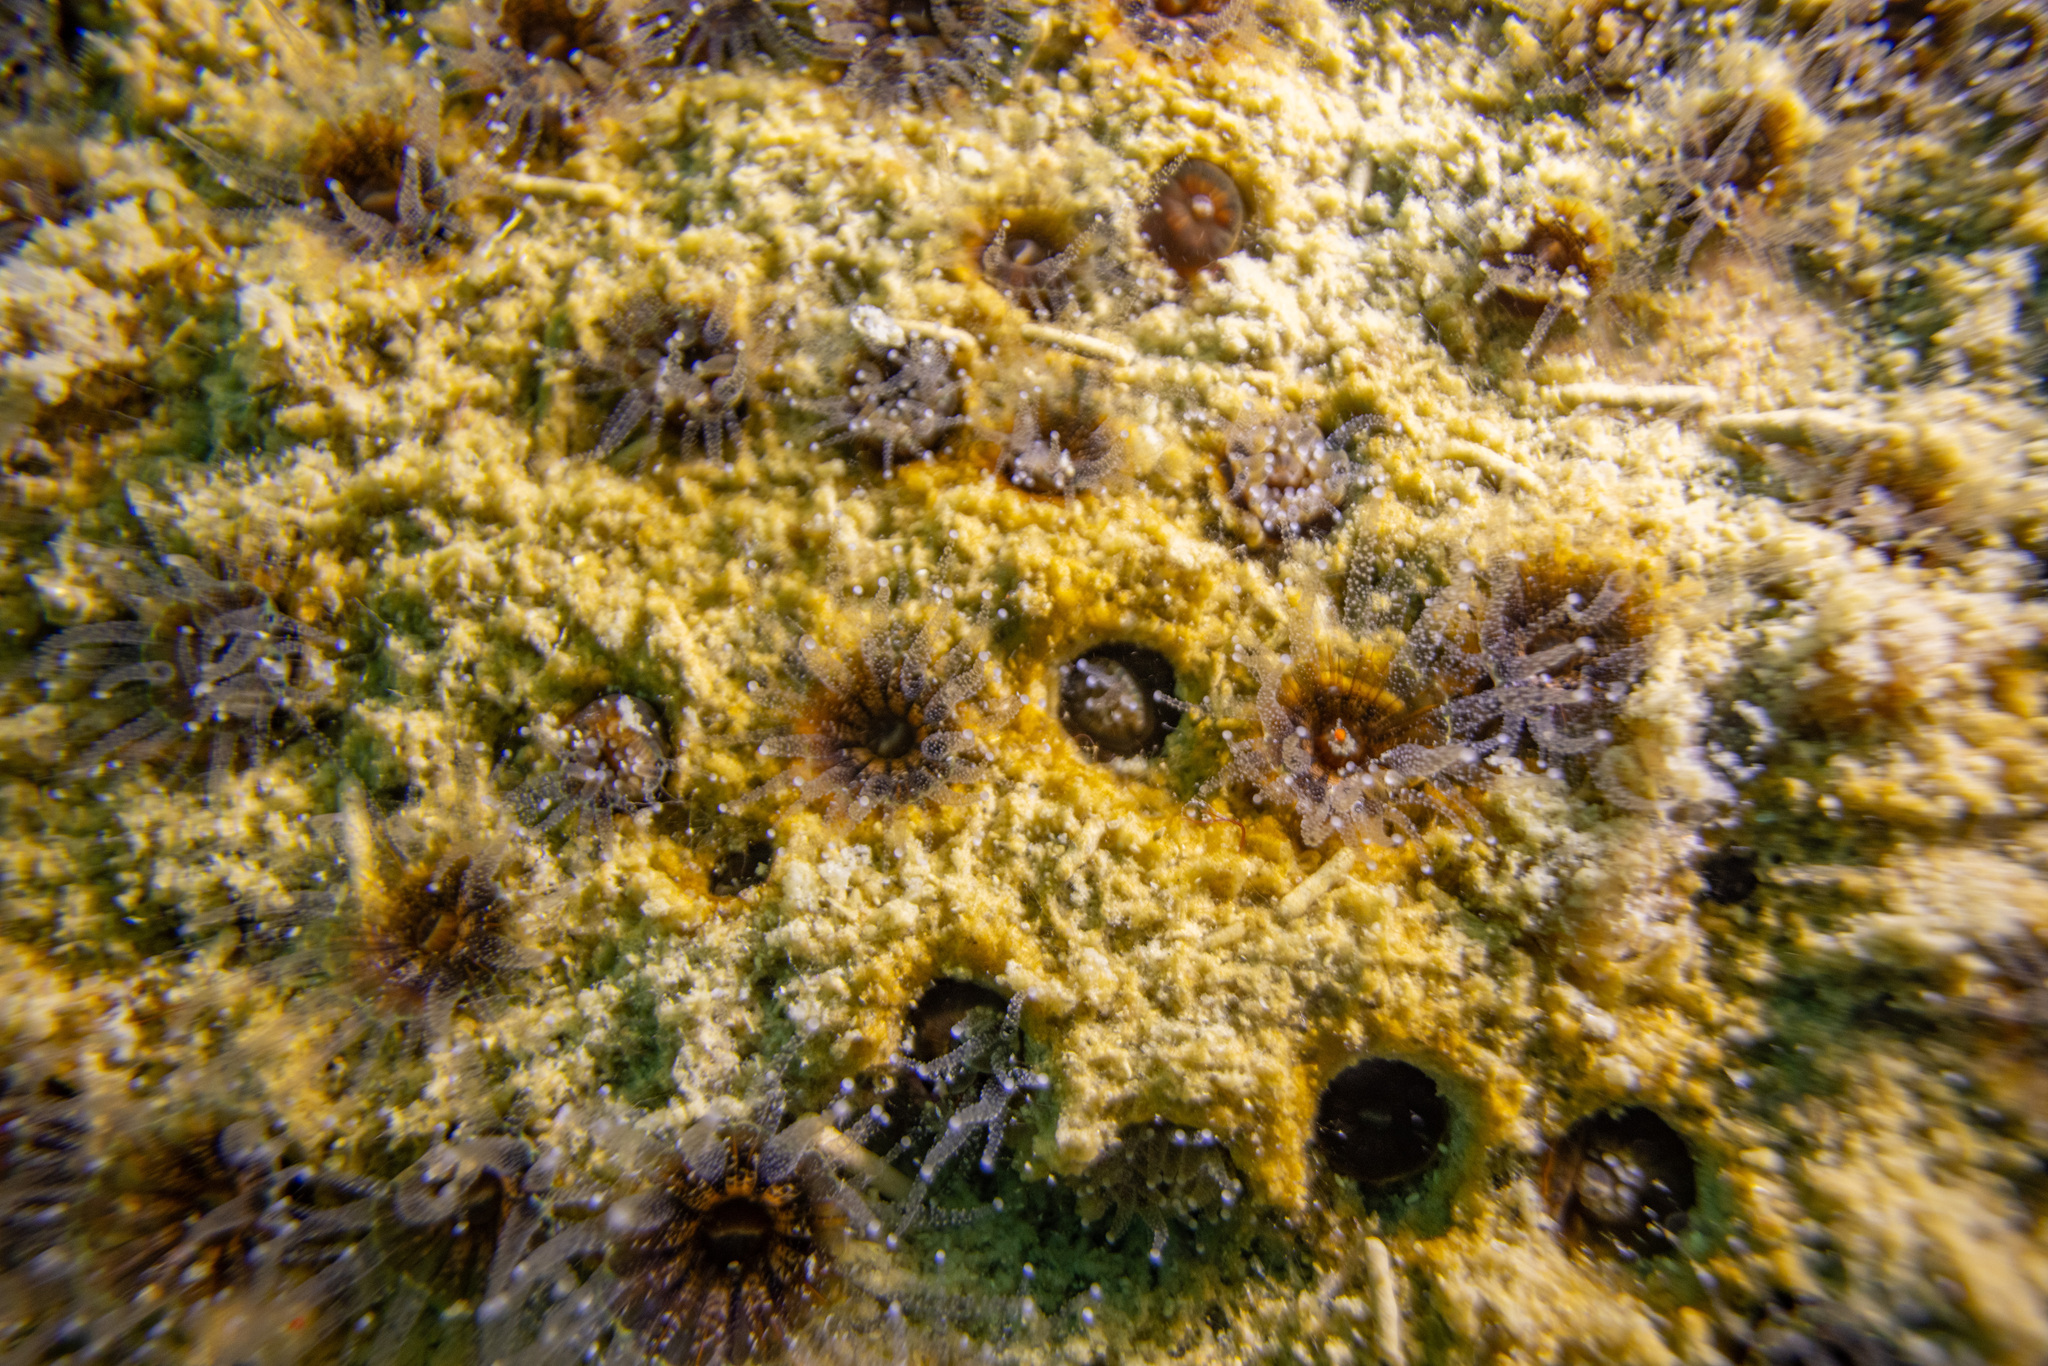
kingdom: Animalia
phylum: Cnidaria
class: Anthozoa
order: Scleractinia
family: Rhizangiidae
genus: Culicia
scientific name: Culicia rubeola
